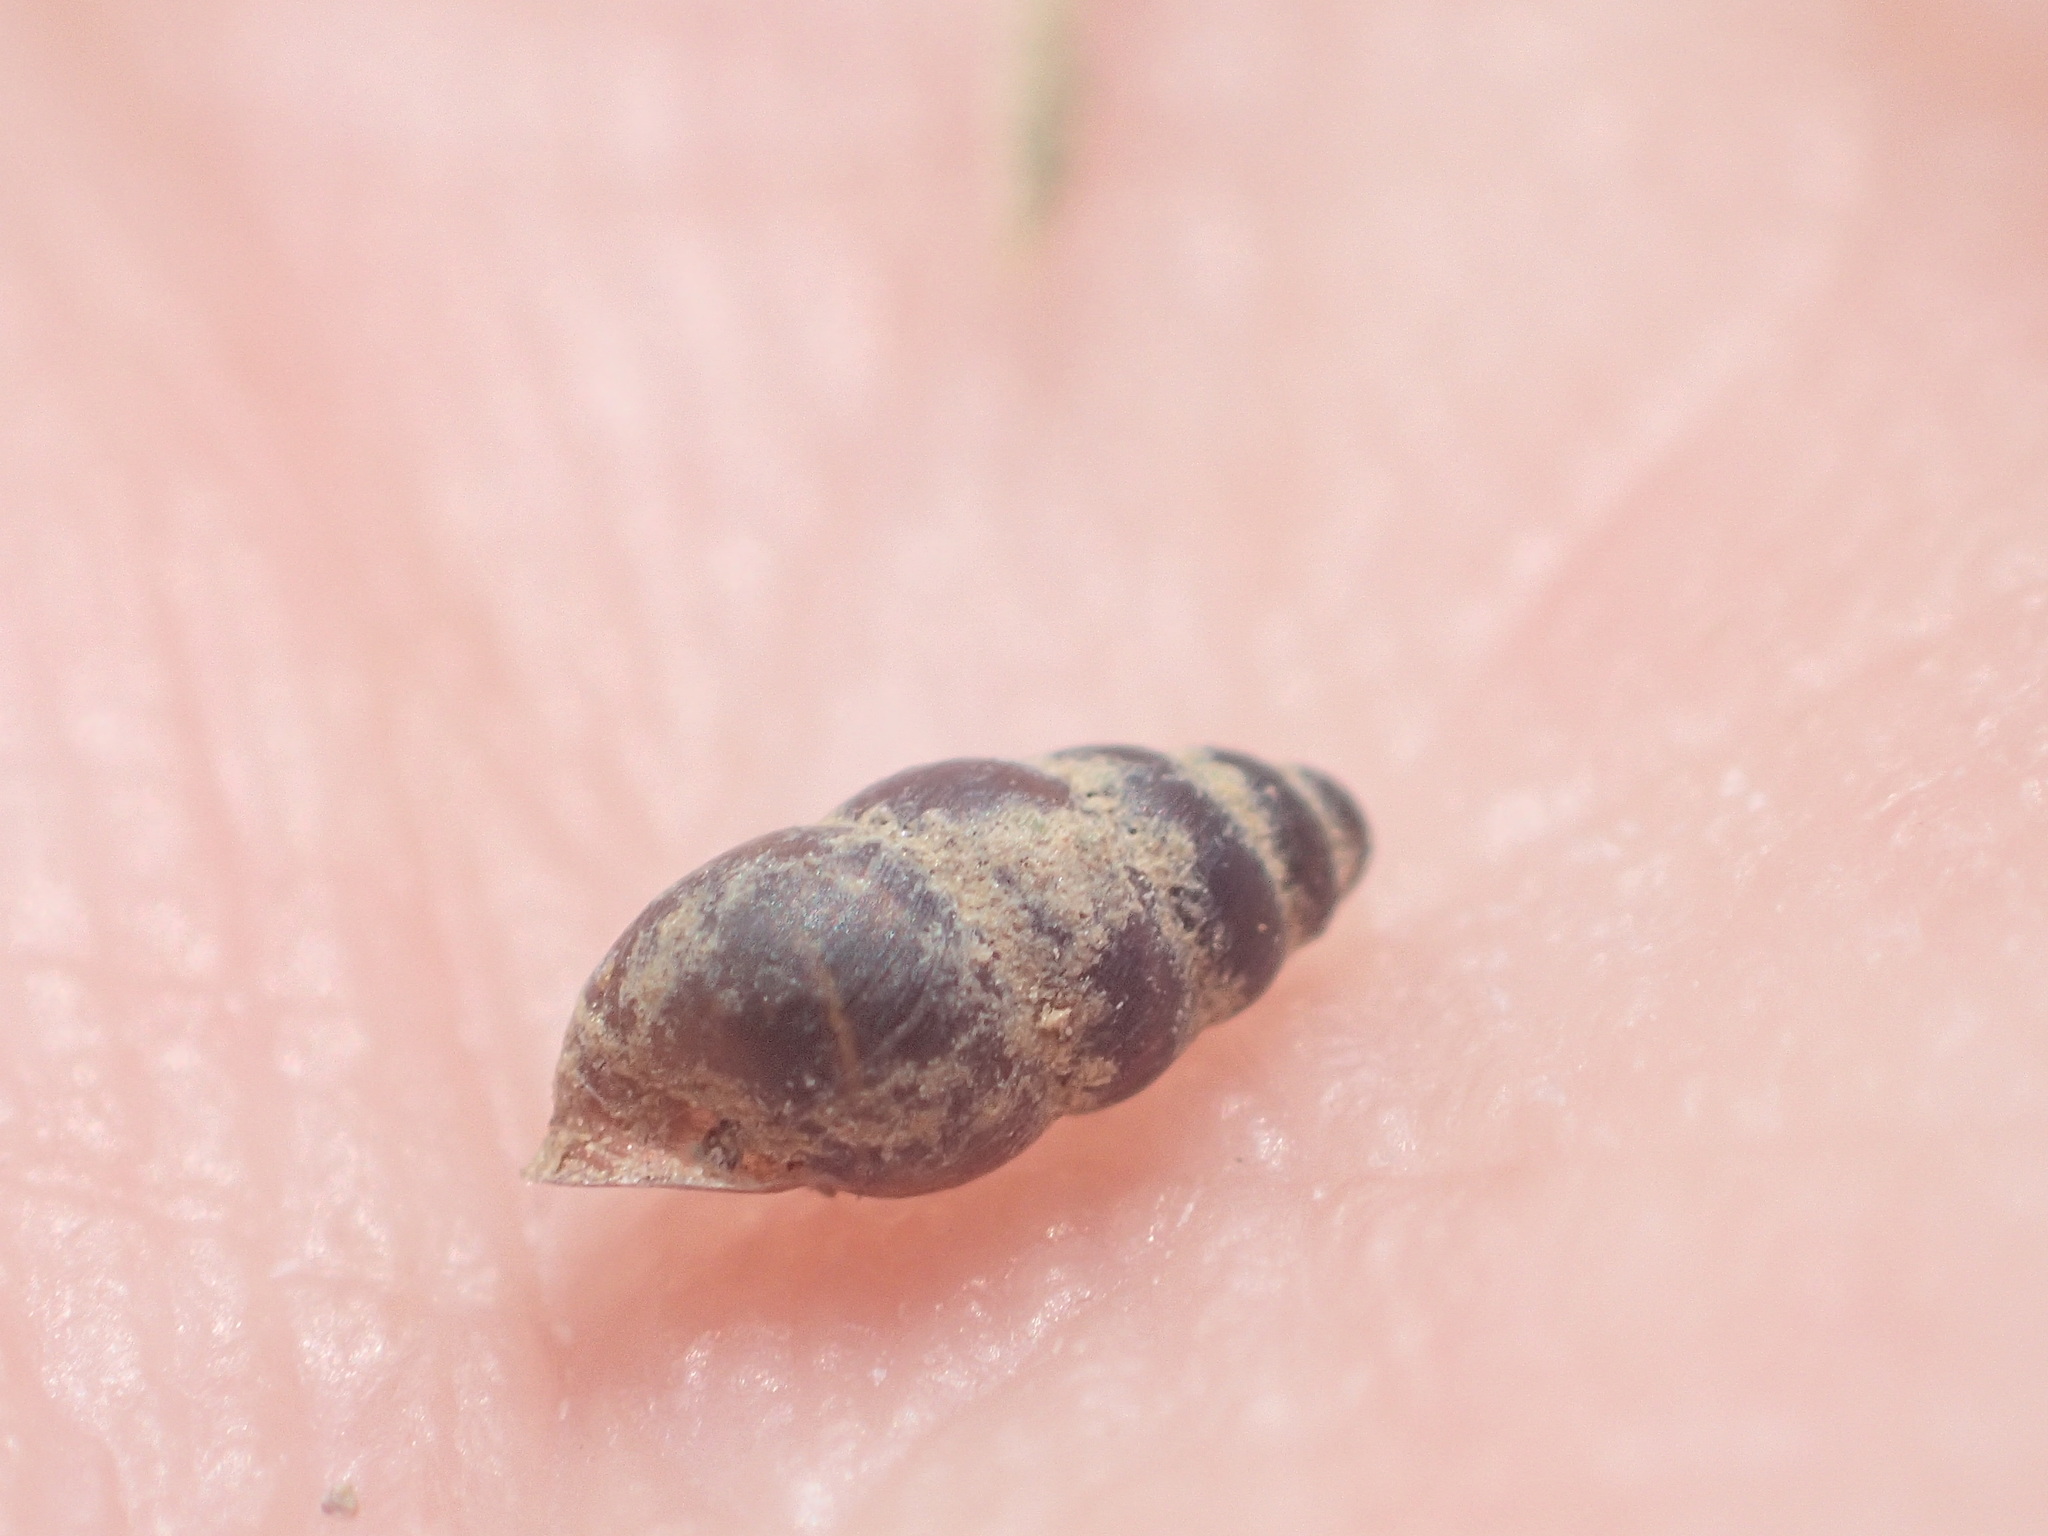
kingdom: Animalia
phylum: Mollusca
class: Gastropoda
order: Stylommatophora
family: Cochlicopidae
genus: Cochlicopa
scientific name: Cochlicopa lubrica
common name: Glossy pillar snail
